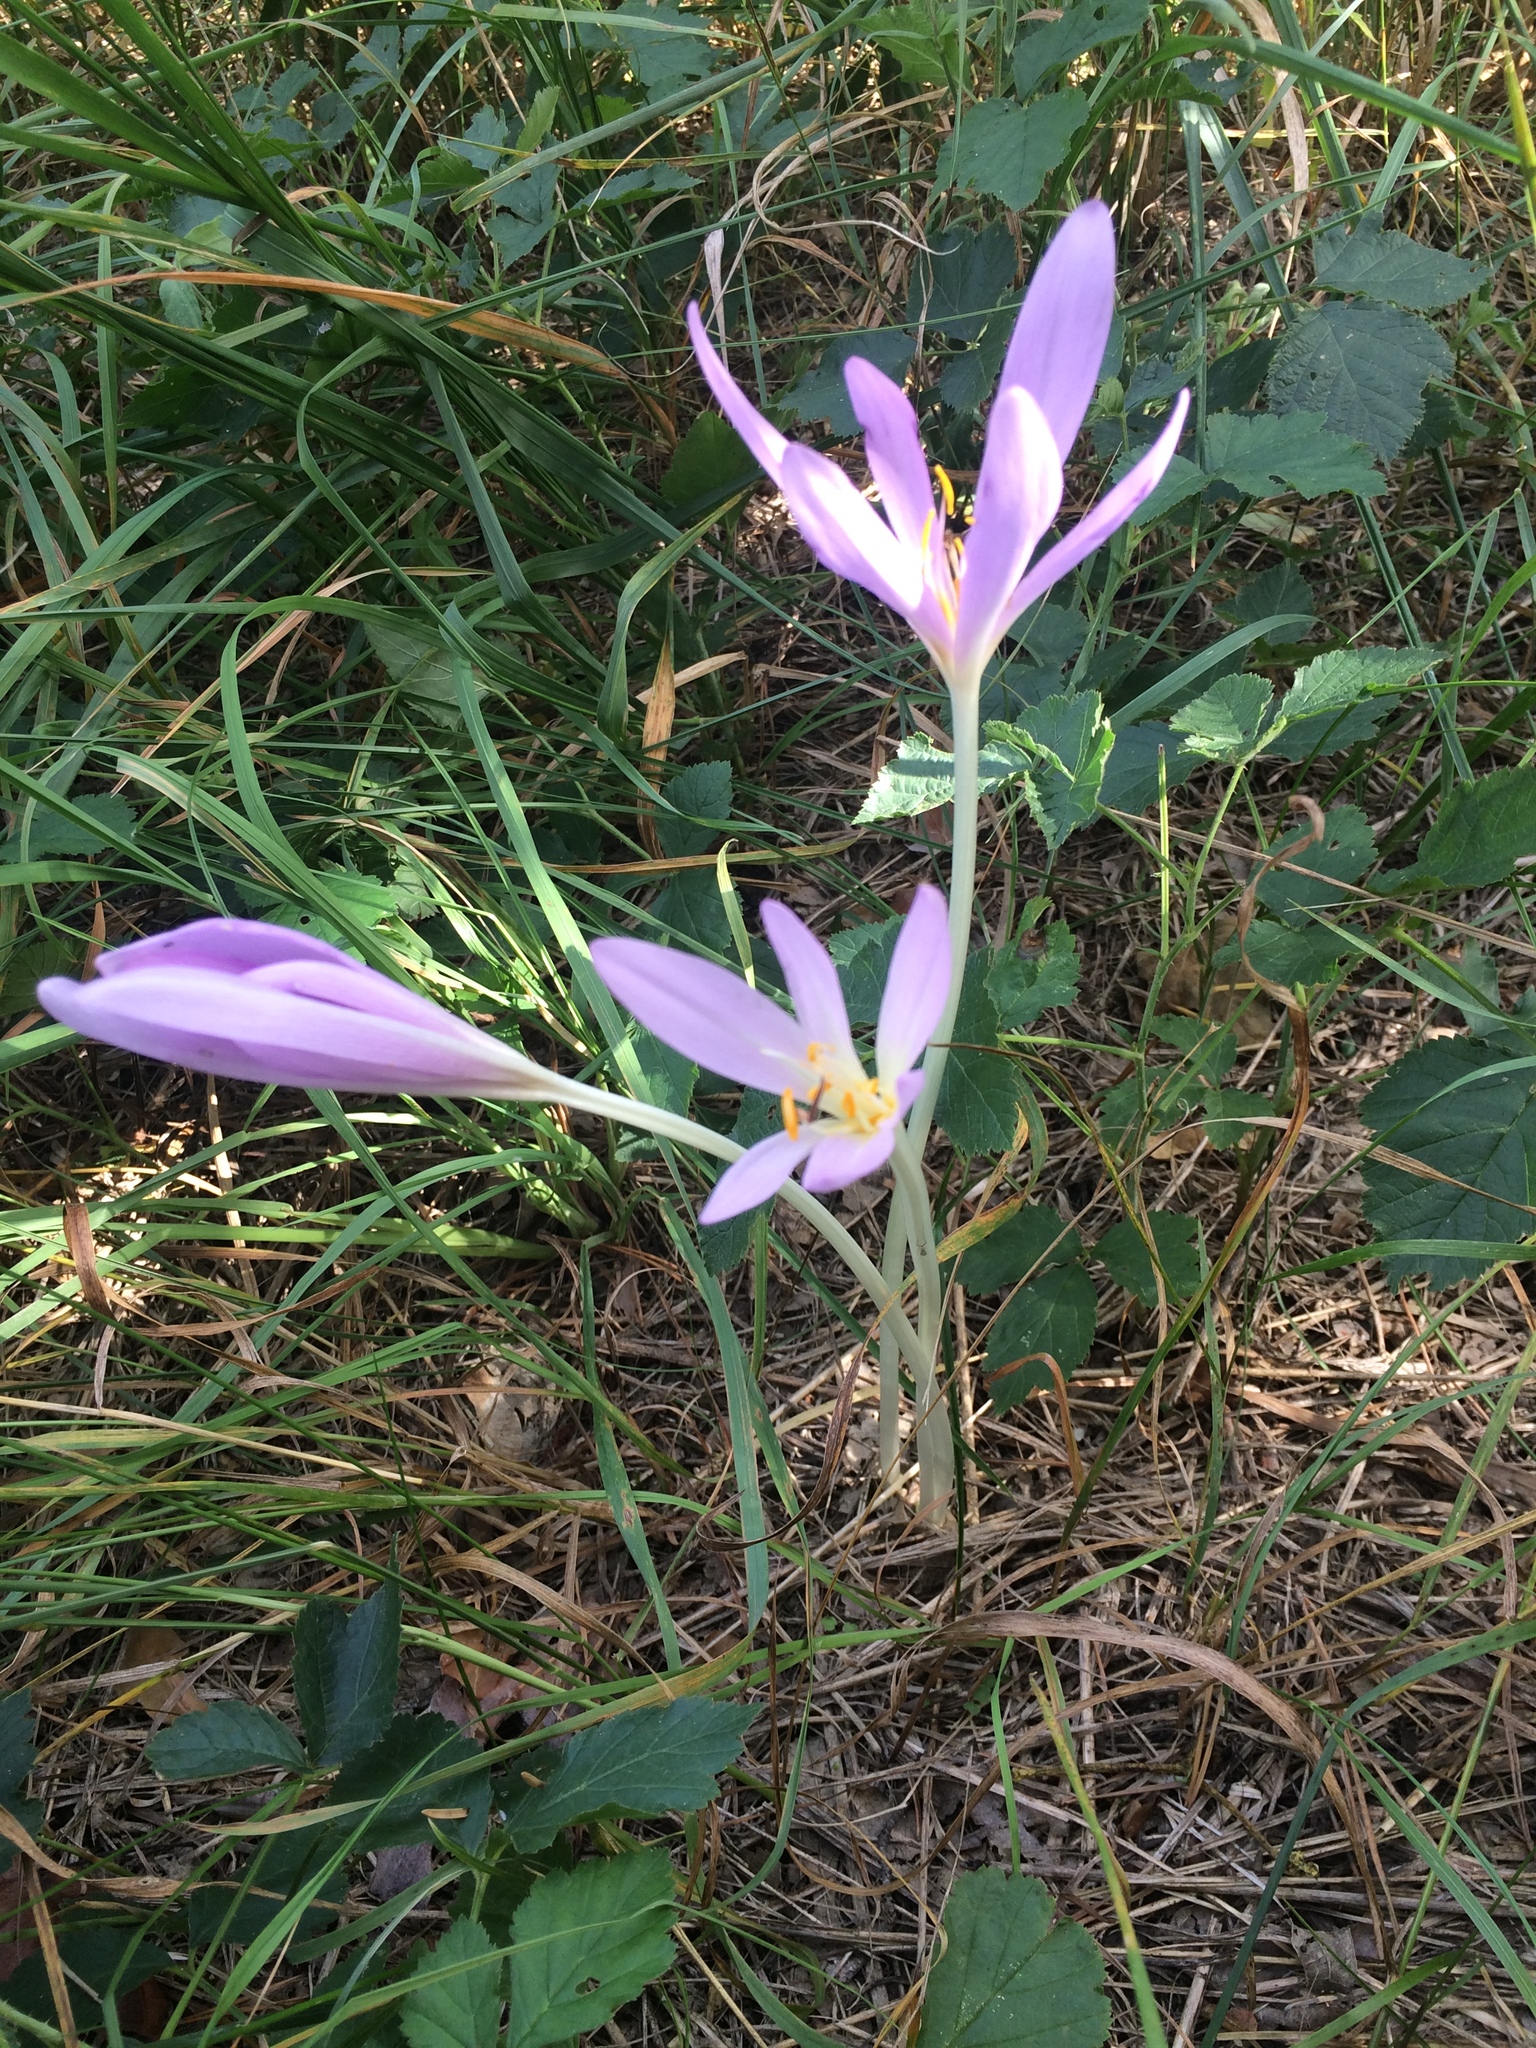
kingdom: Plantae
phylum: Tracheophyta
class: Liliopsida
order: Liliales
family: Colchicaceae
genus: Colchicum
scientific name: Colchicum autumnale
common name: Autumn crocus
